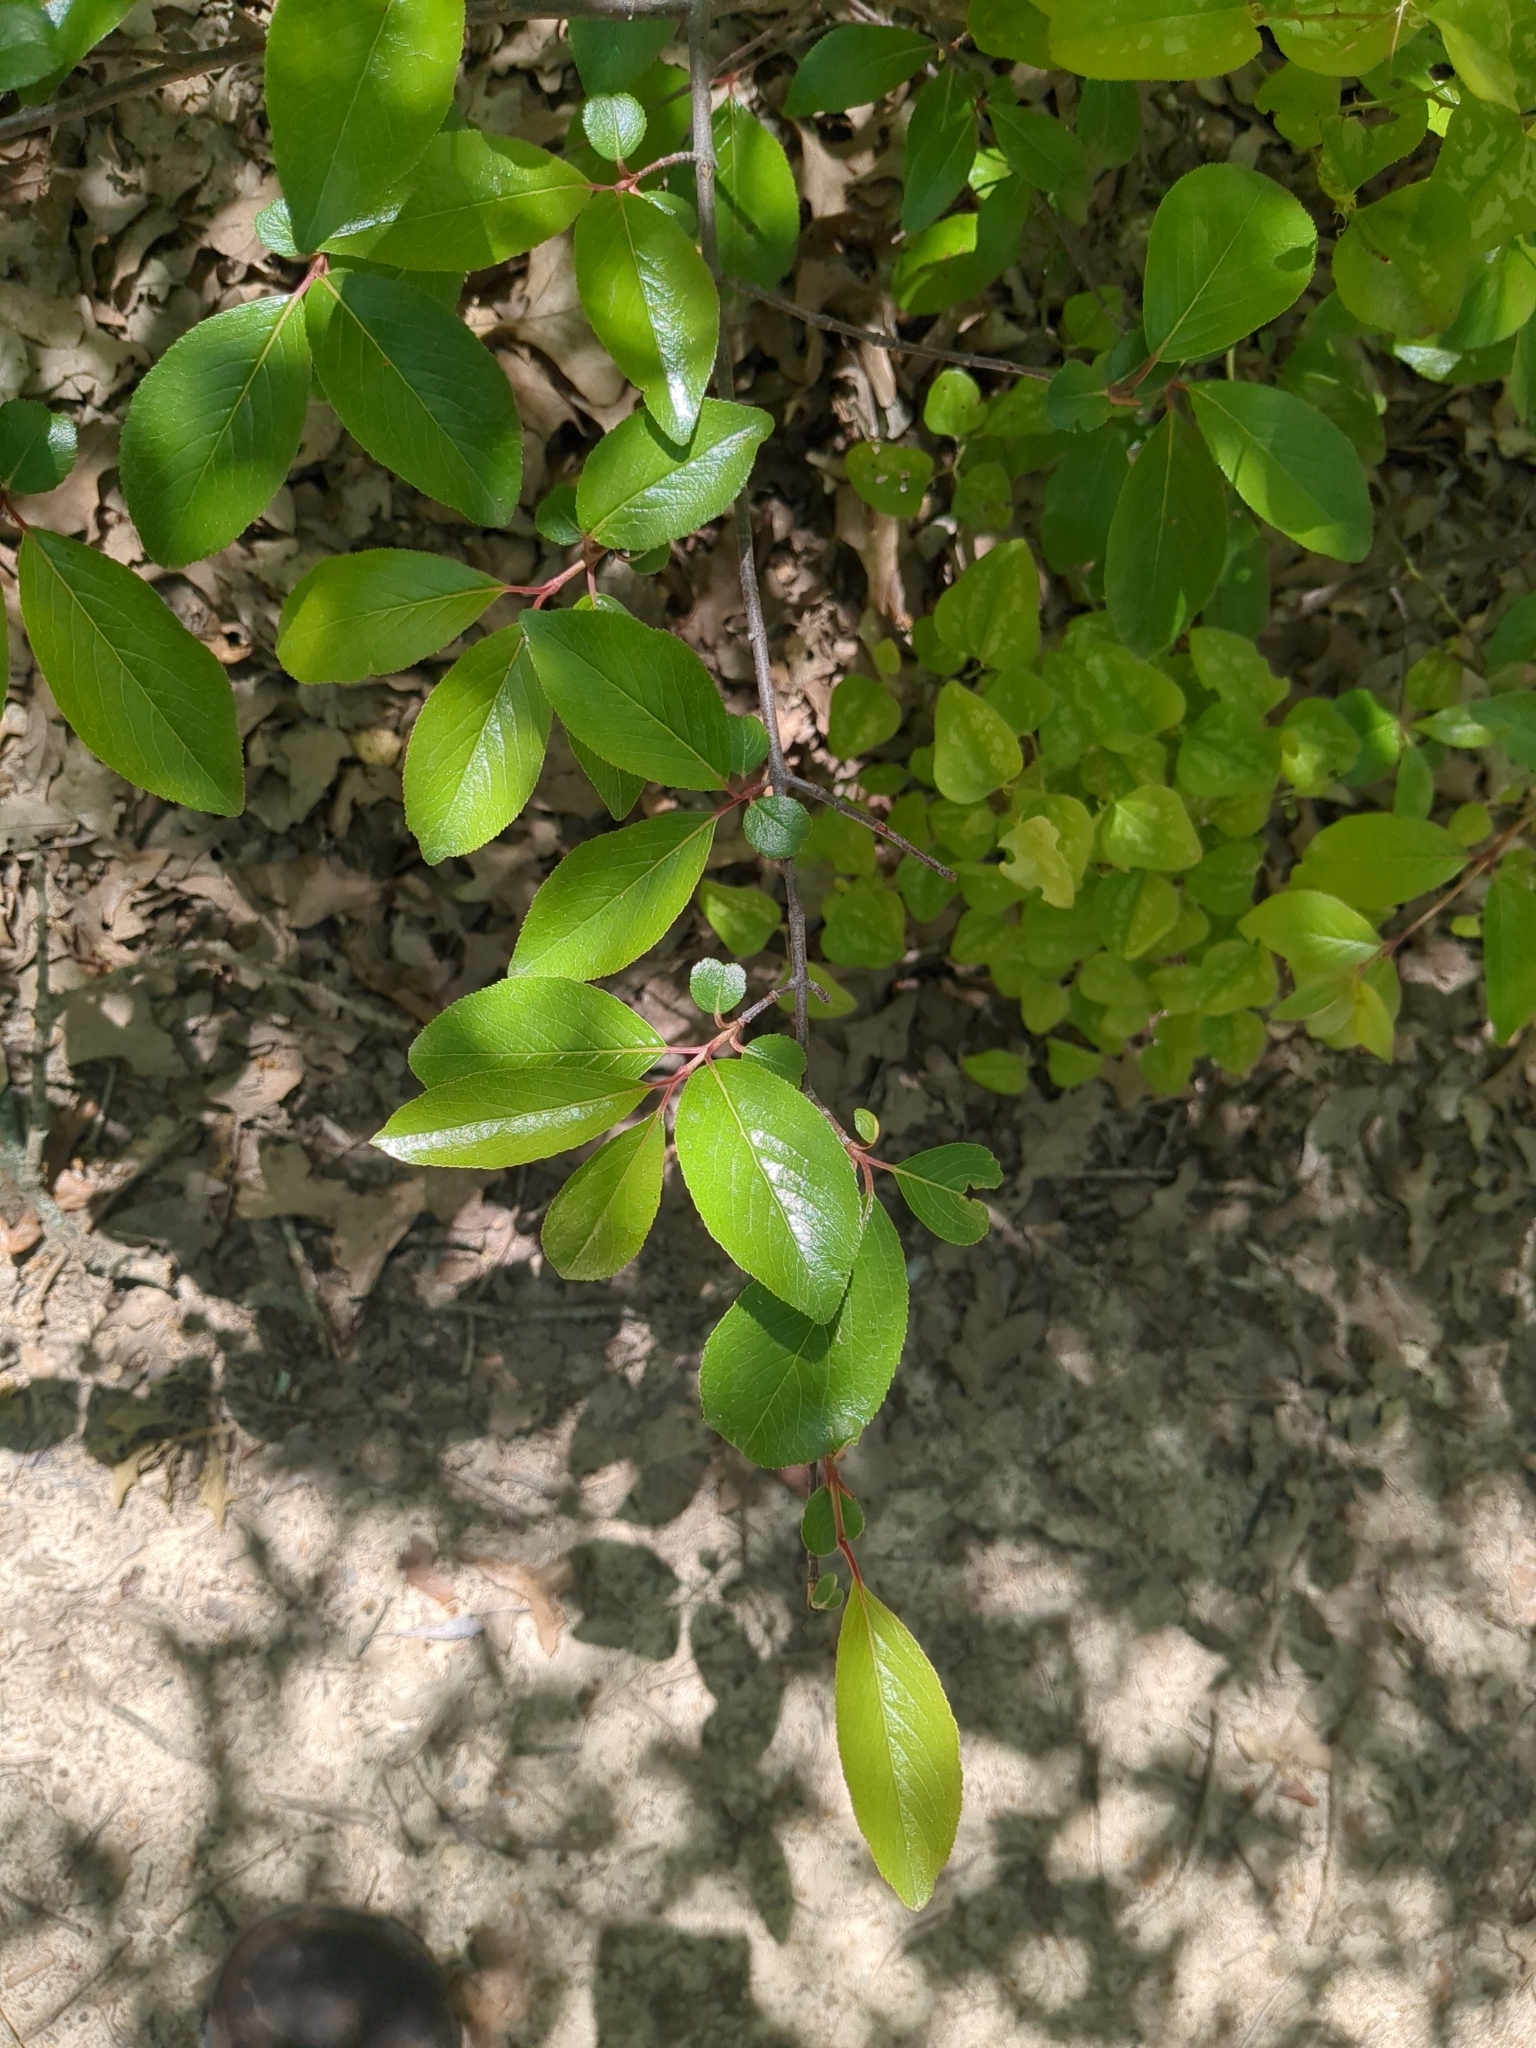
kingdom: Plantae
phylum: Tracheophyta
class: Magnoliopsida
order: Dipsacales
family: Viburnaceae
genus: Viburnum
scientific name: Viburnum rufidulum
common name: Blue haw
